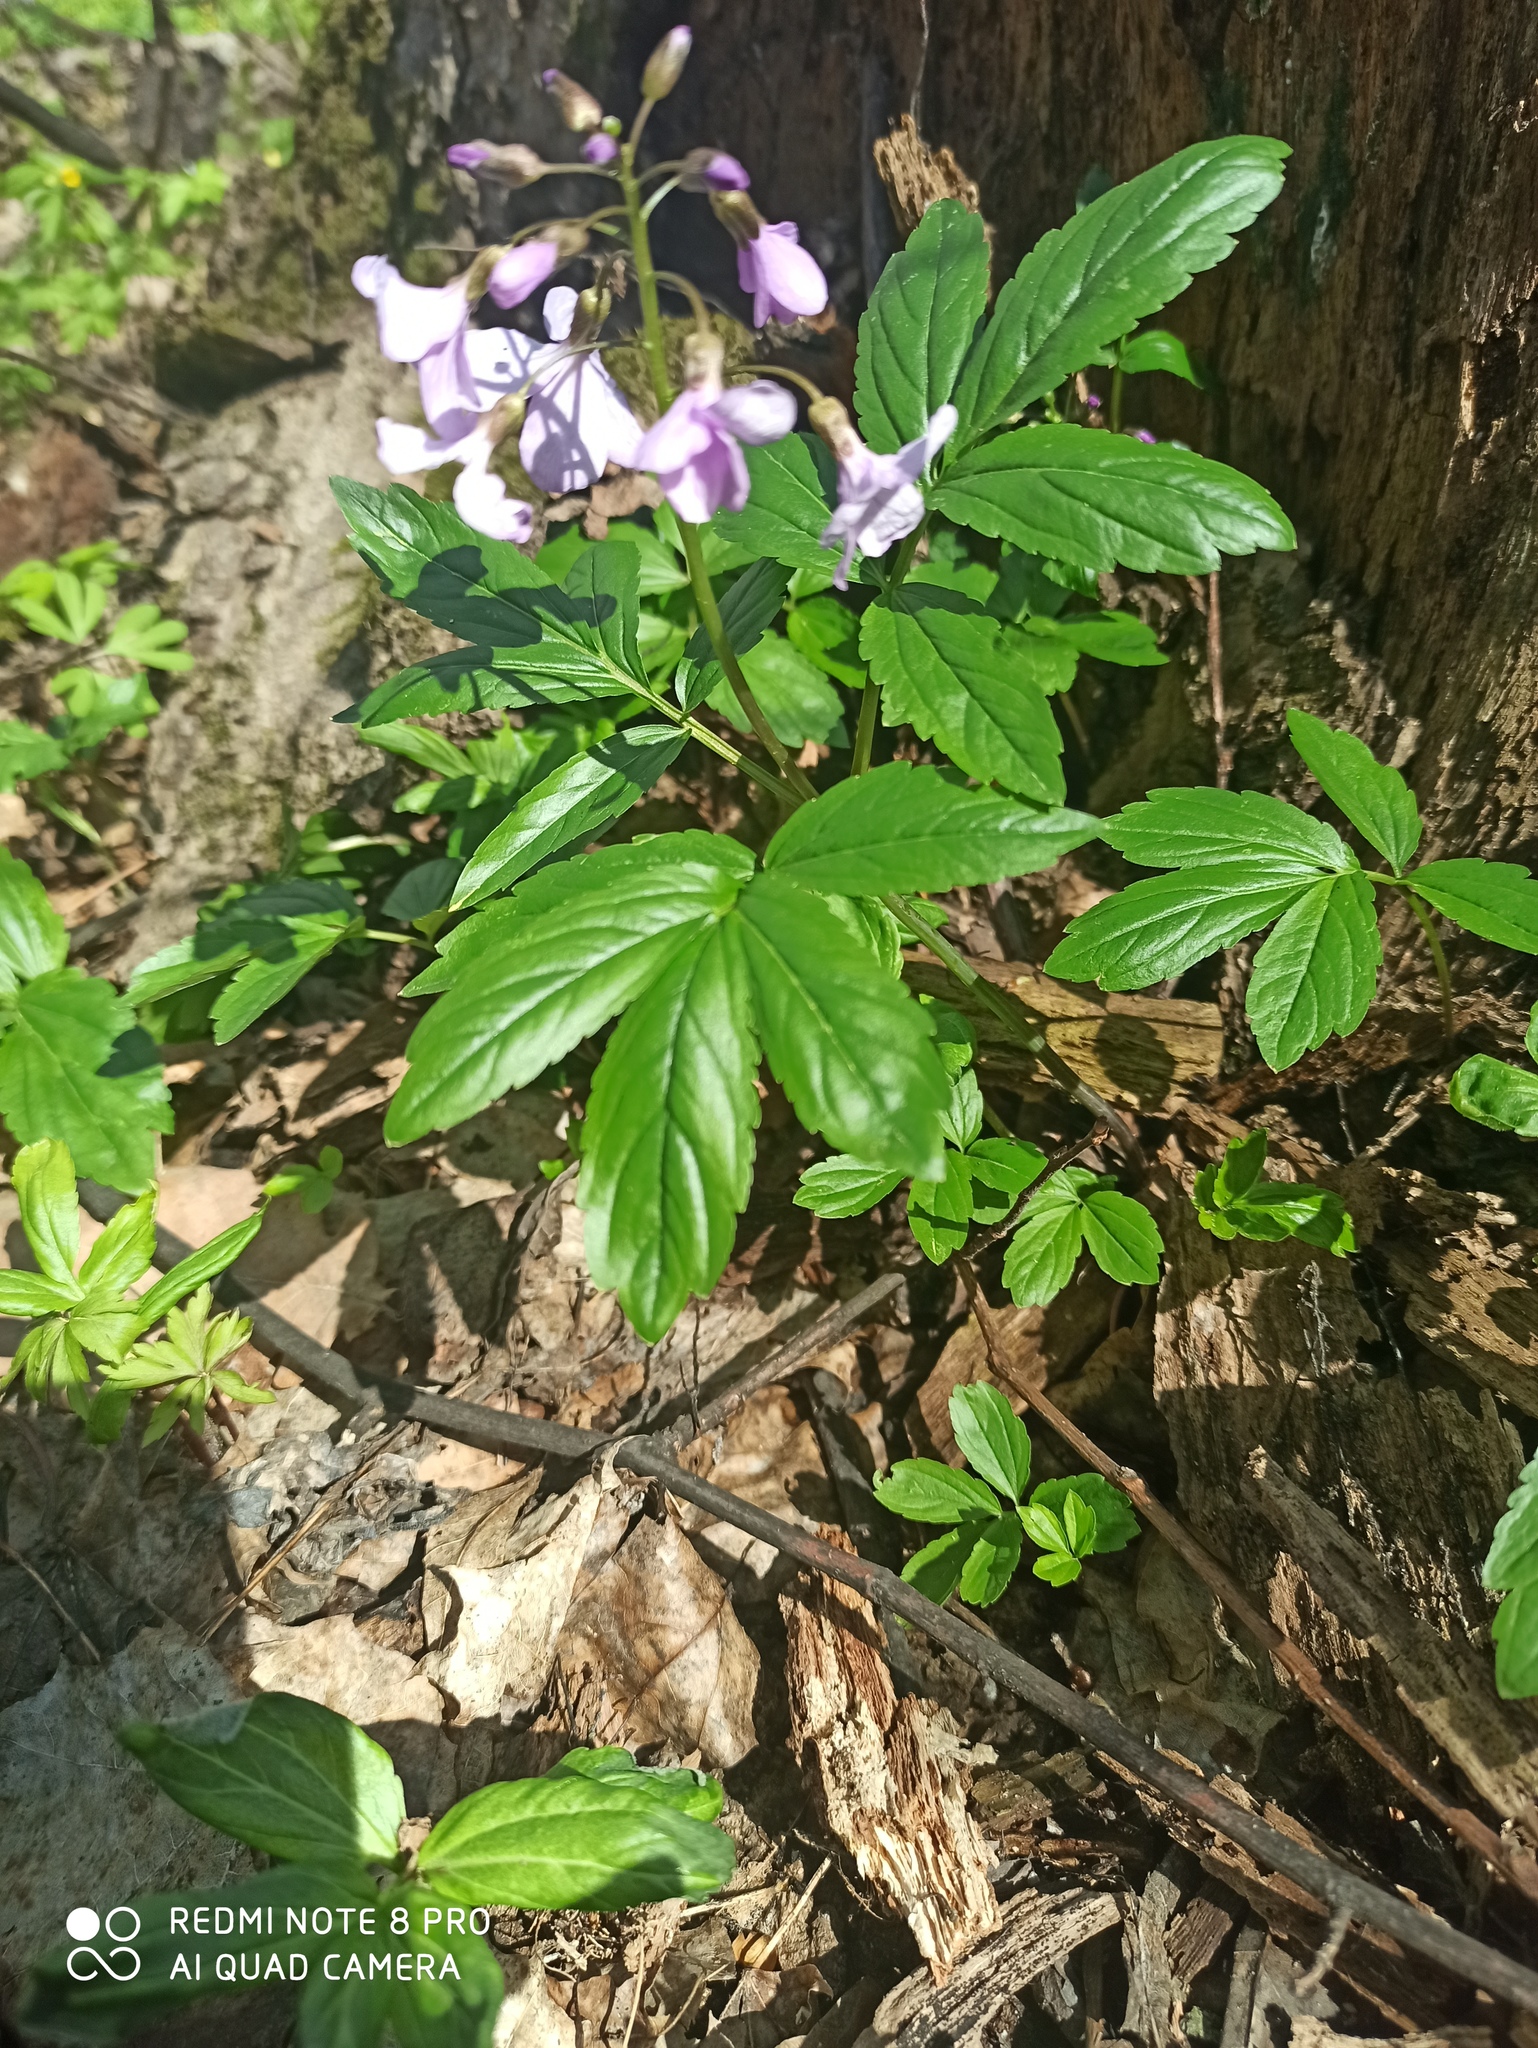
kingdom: Plantae
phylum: Tracheophyta
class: Magnoliopsida
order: Brassicales
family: Brassicaceae
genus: Cardamine
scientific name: Cardamine quinquefolia
